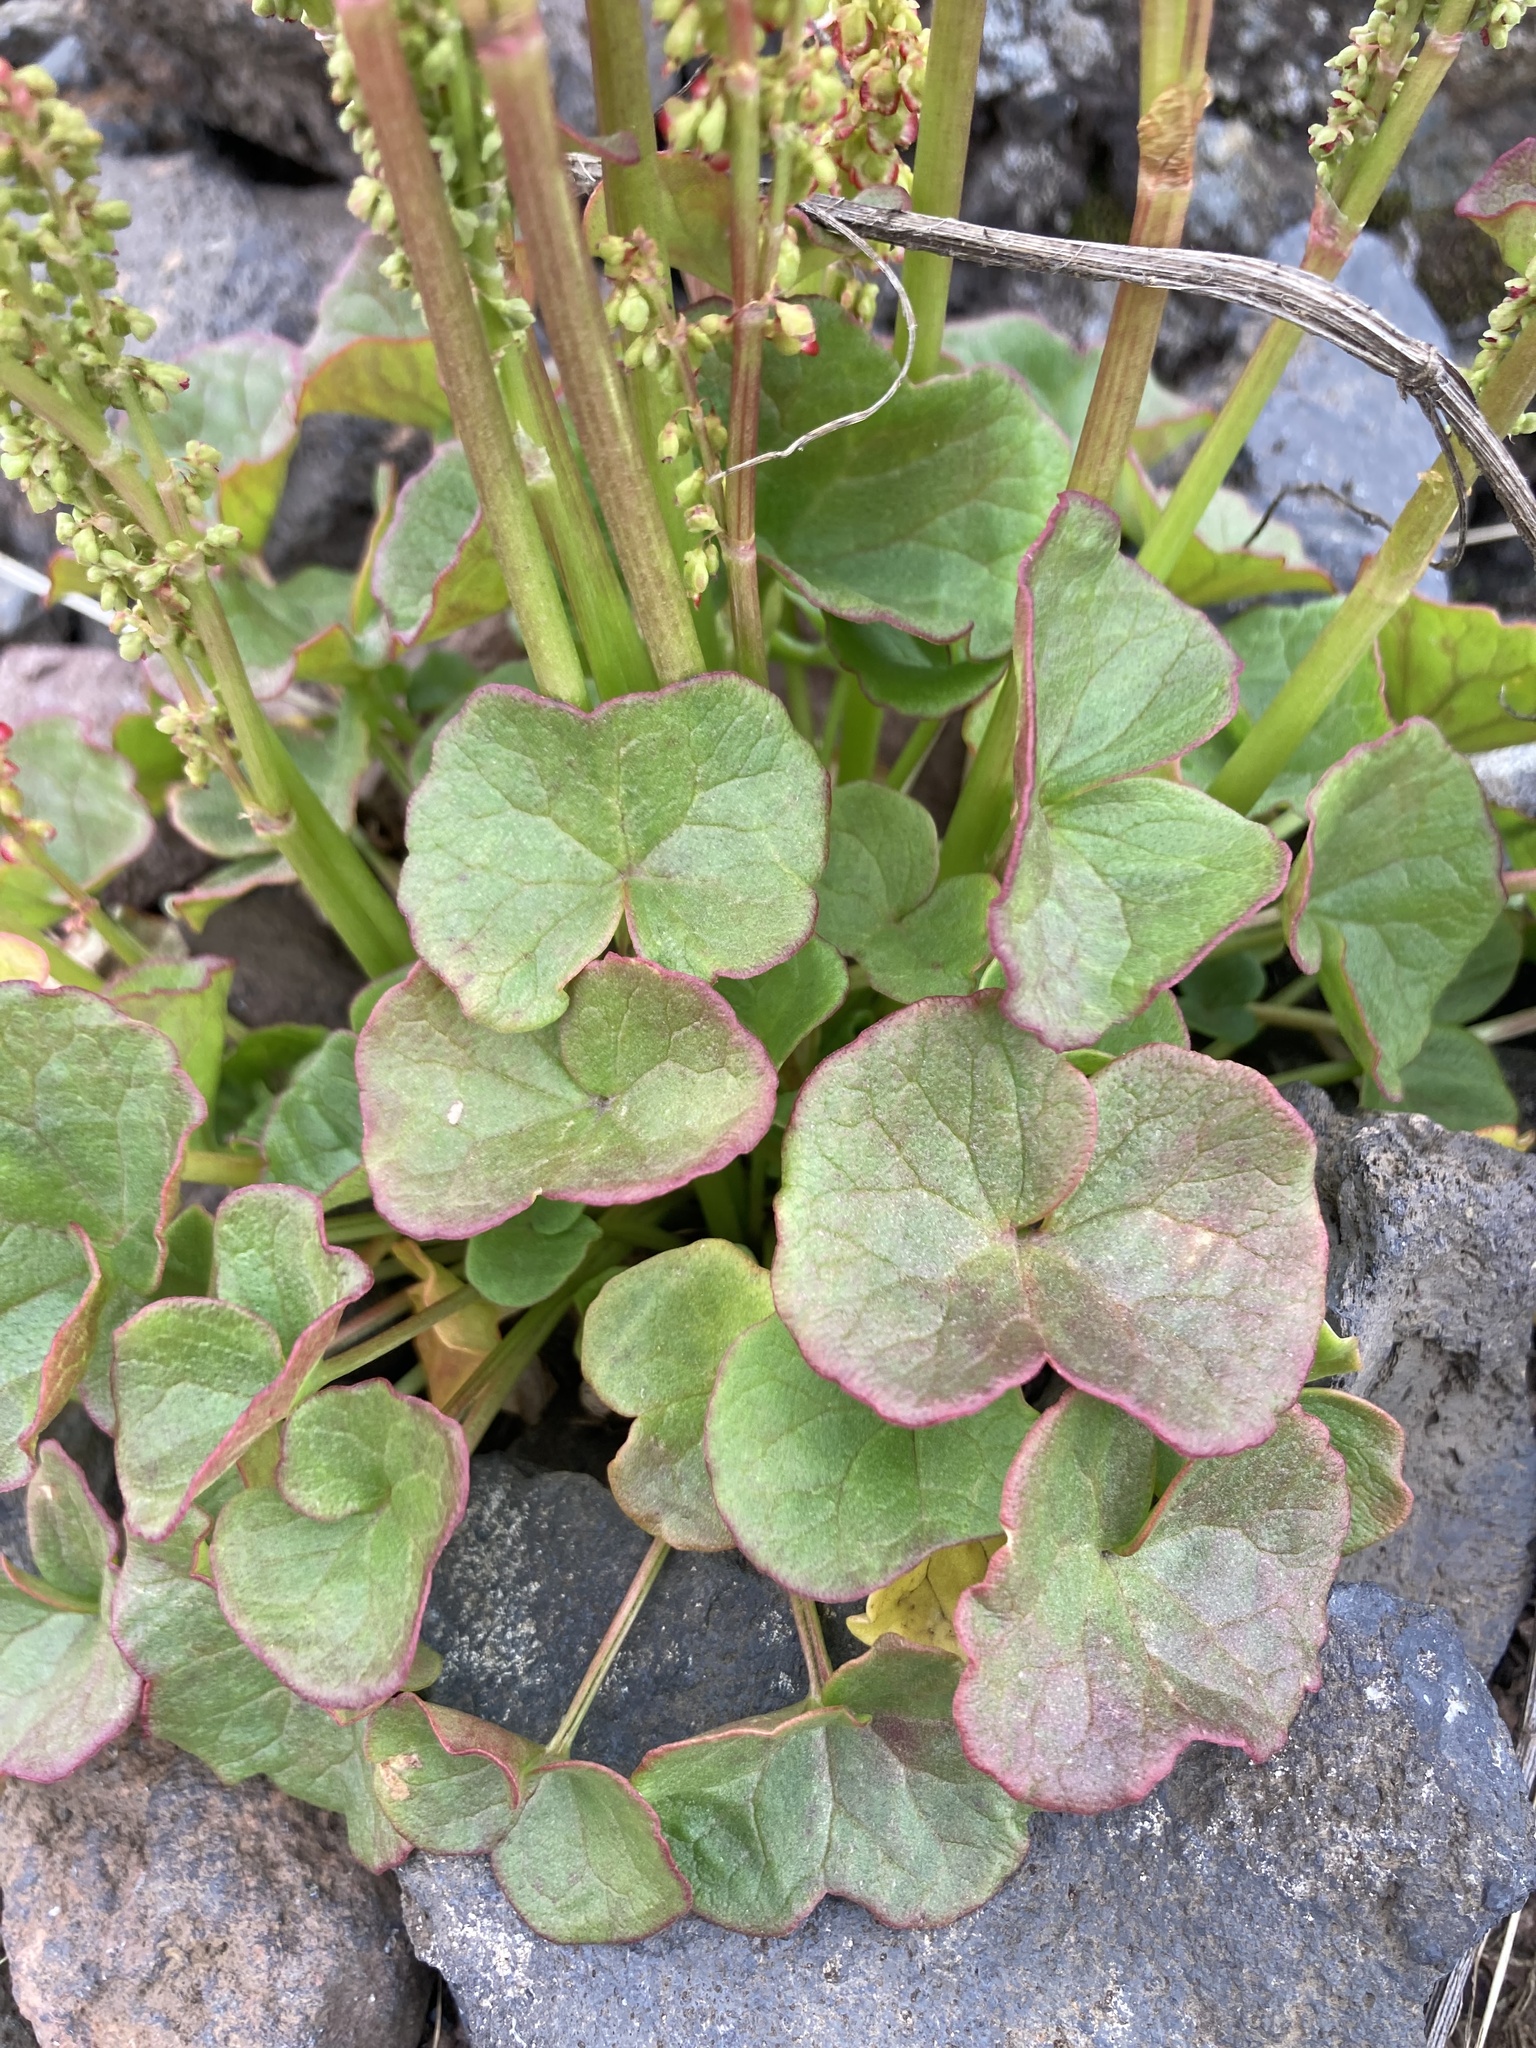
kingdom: Plantae
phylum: Tracheophyta
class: Magnoliopsida
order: Caryophyllales
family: Polygonaceae
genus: Oxyria
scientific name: Oxyria digyna
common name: Alpine mountain-sorrel
